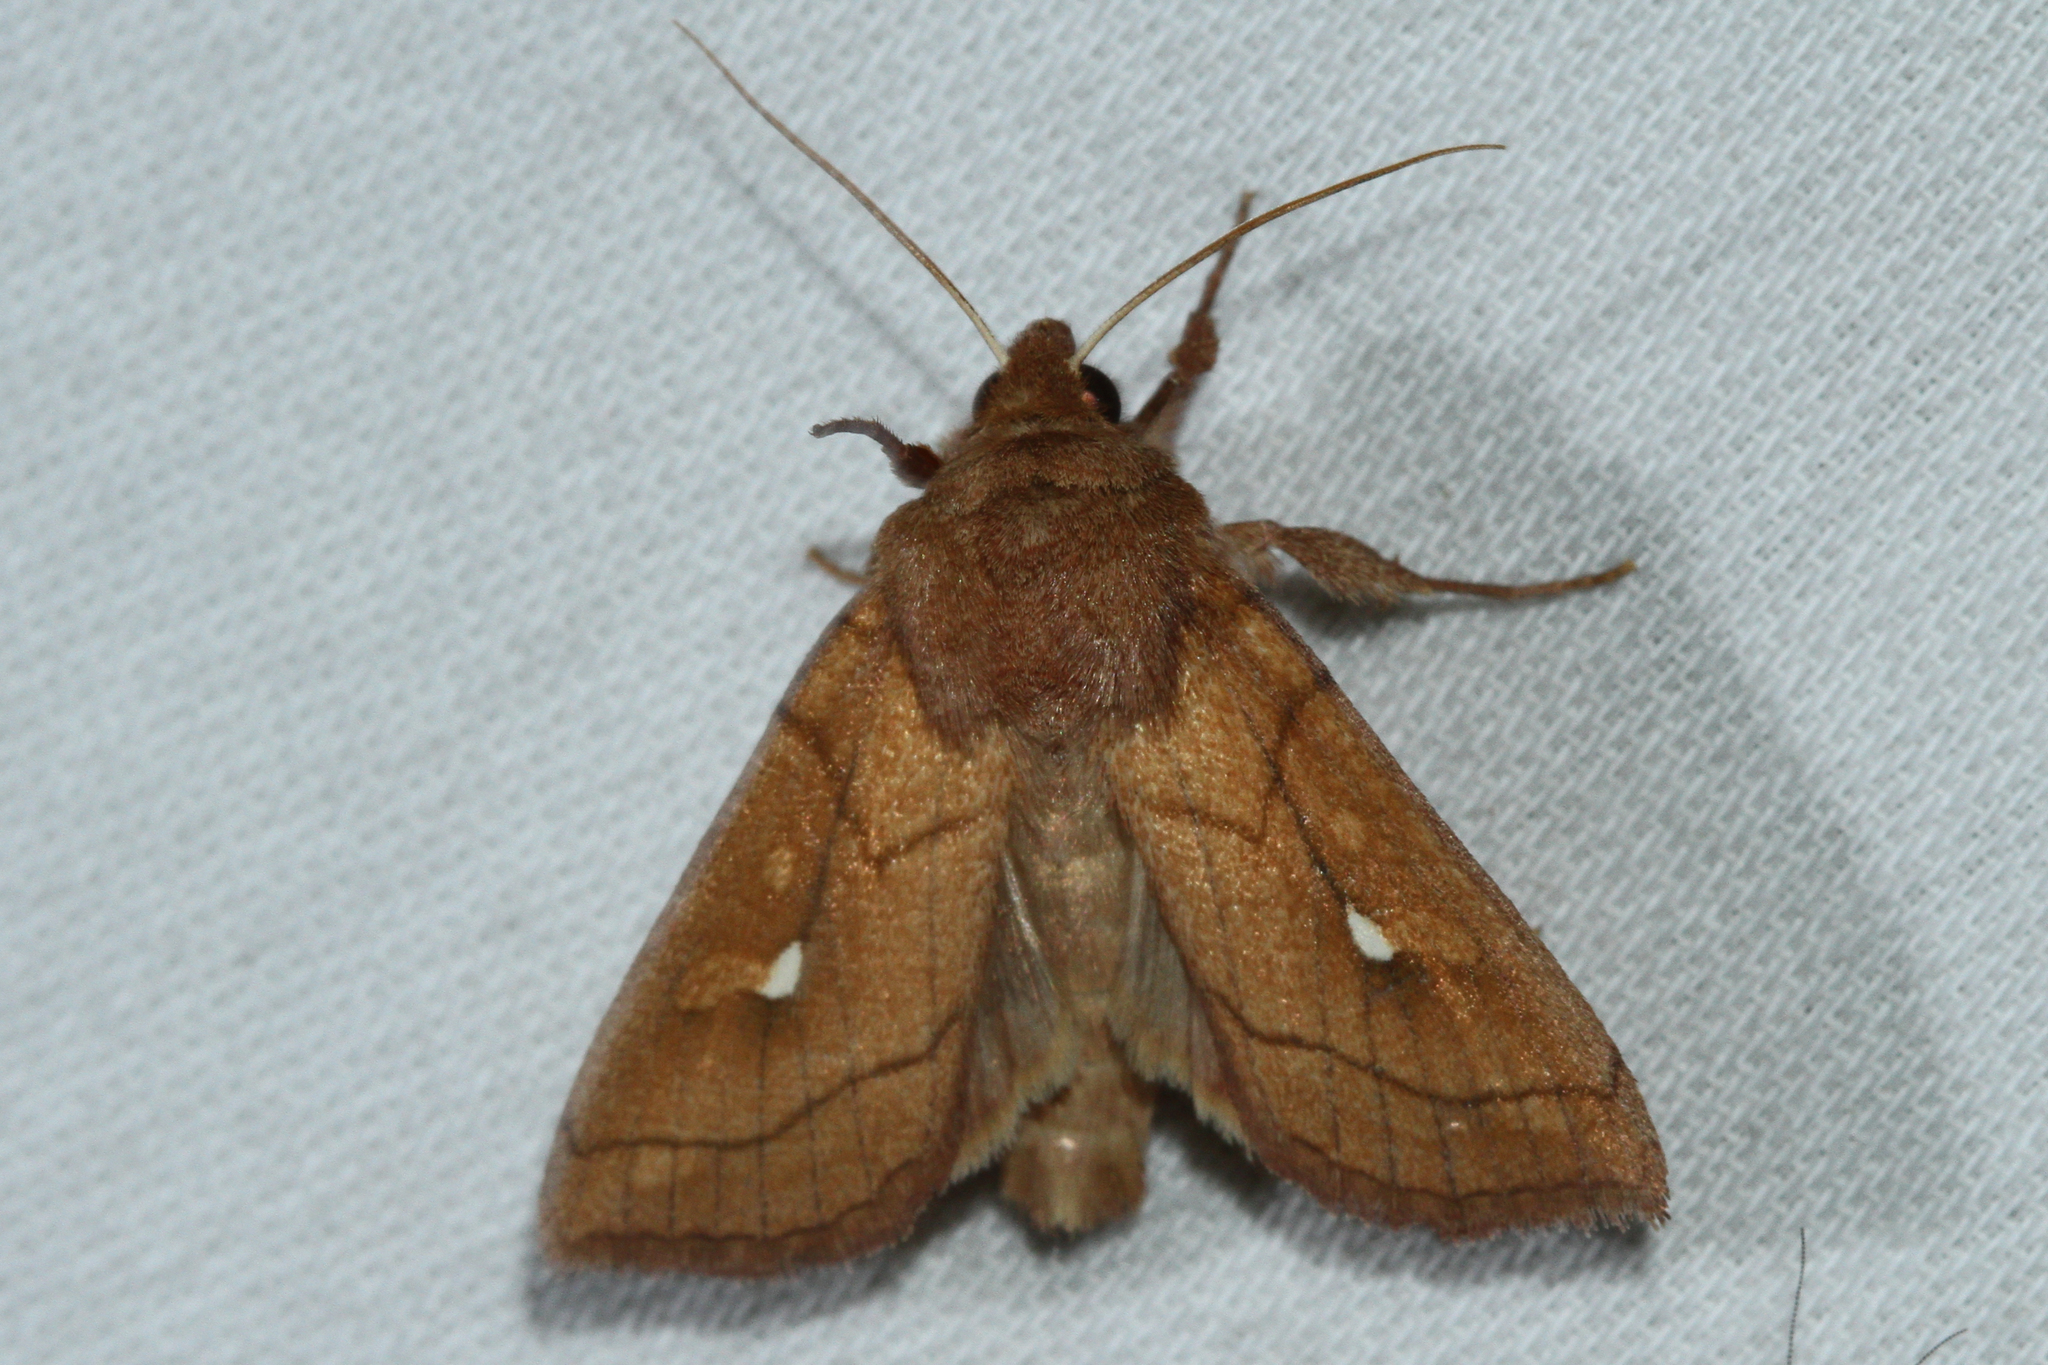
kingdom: Animalia
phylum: Arthropoda
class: Insecta
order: Lepidoptera
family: Noctuidae
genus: Mythimna
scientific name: Mythimna conigera
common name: Brown-line bright-eye
